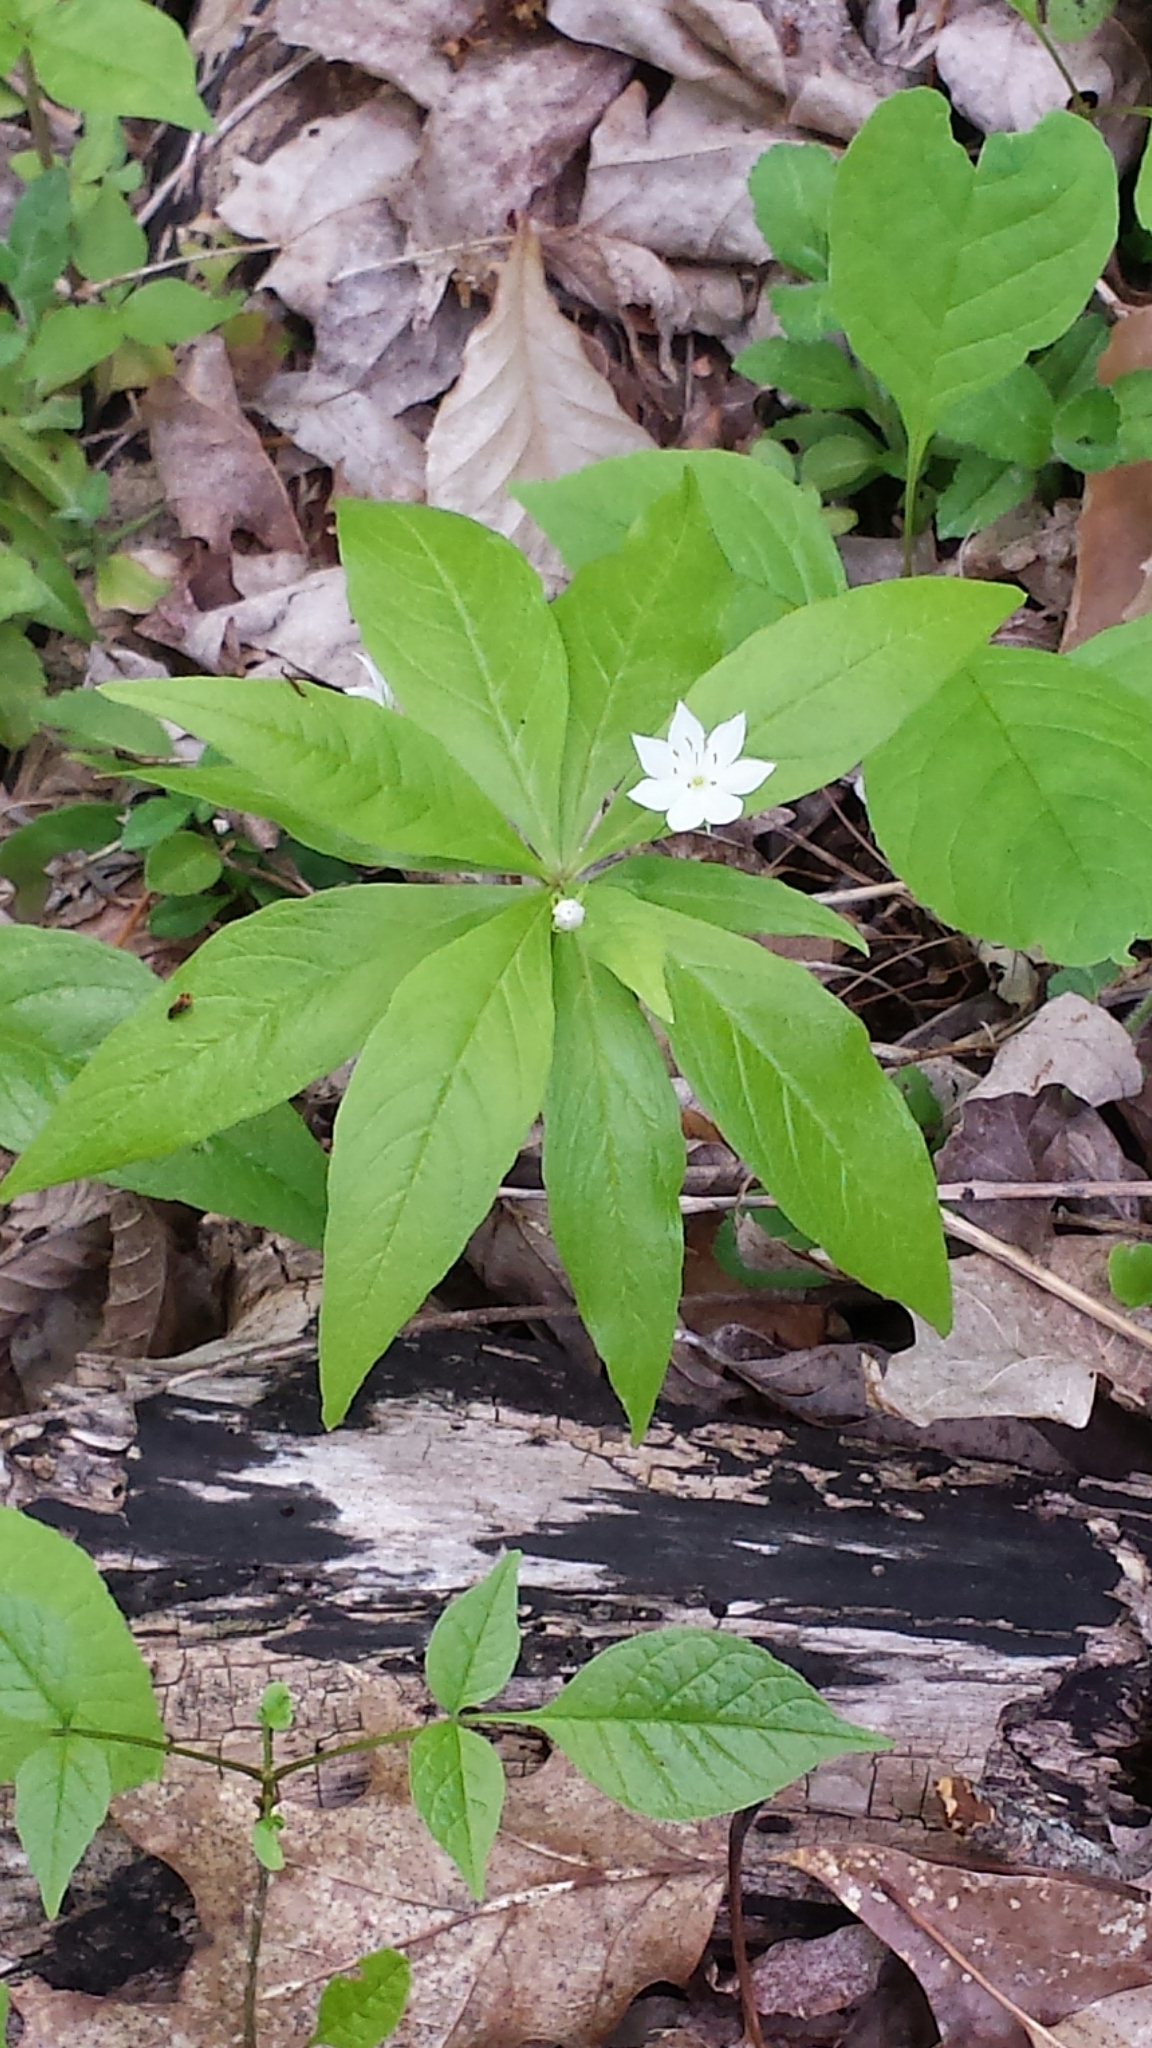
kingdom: Plantae
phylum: Tracheophyta
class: Magnoliopsida
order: Ericales
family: Primulaceae
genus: Lysimachia
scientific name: Lysimachia borealis
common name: American starflower
